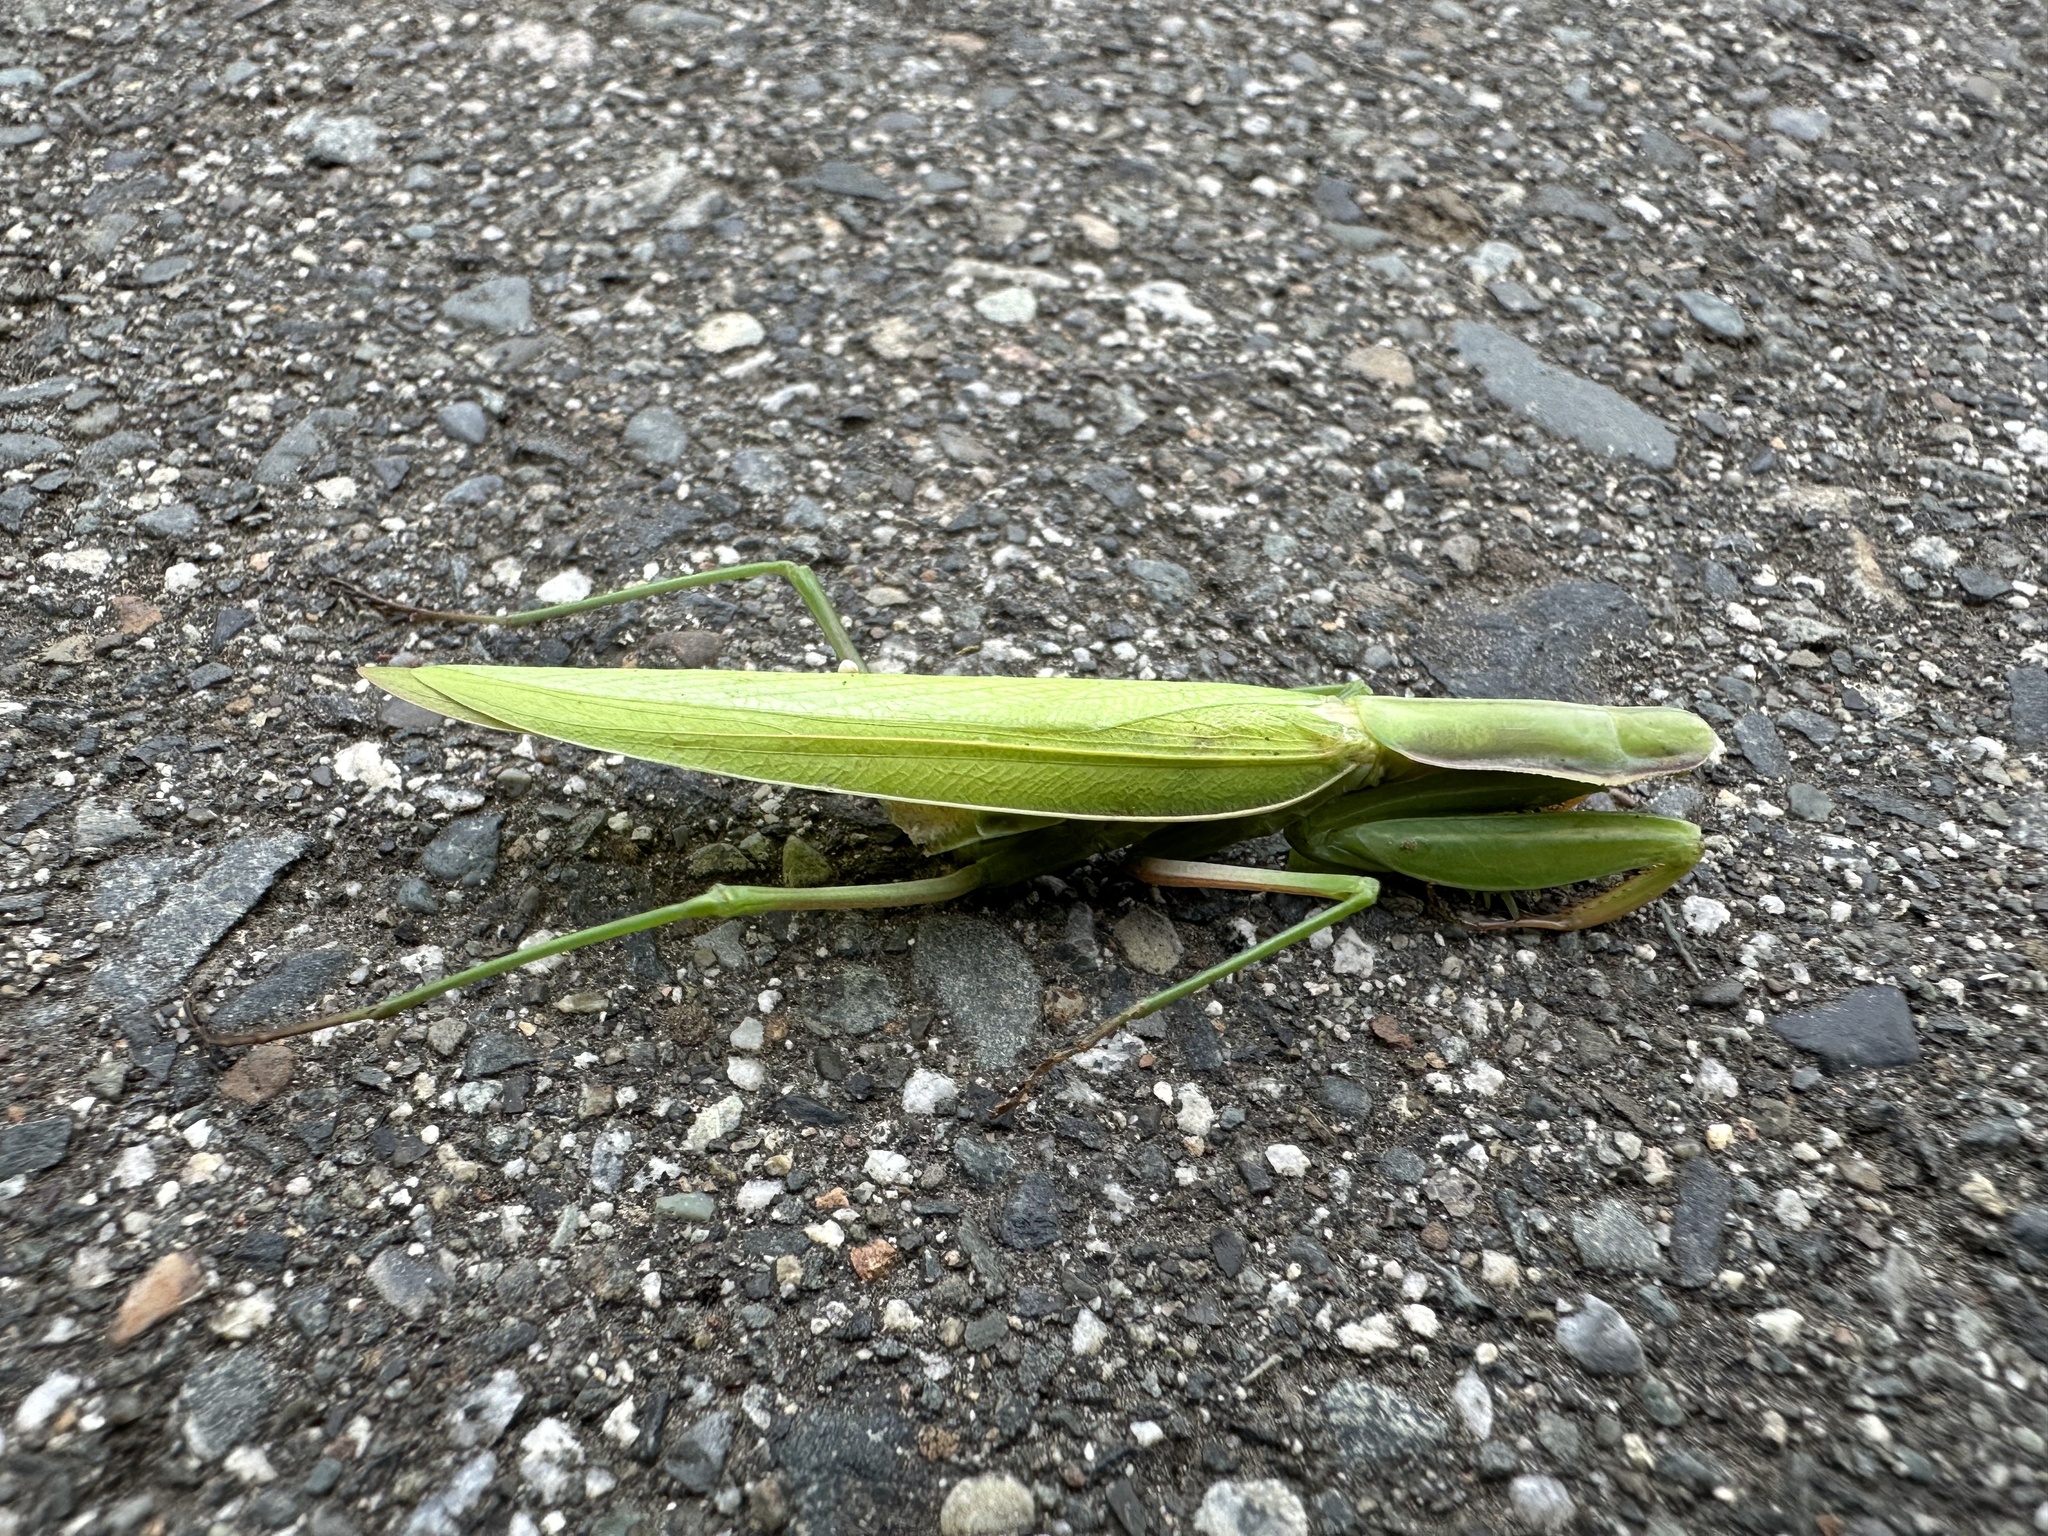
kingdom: Animalia
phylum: Arthropoda
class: Insecta
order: Mantodea
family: Mantidae
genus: Mantis
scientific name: Mantis religiosa
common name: Praying mantis
